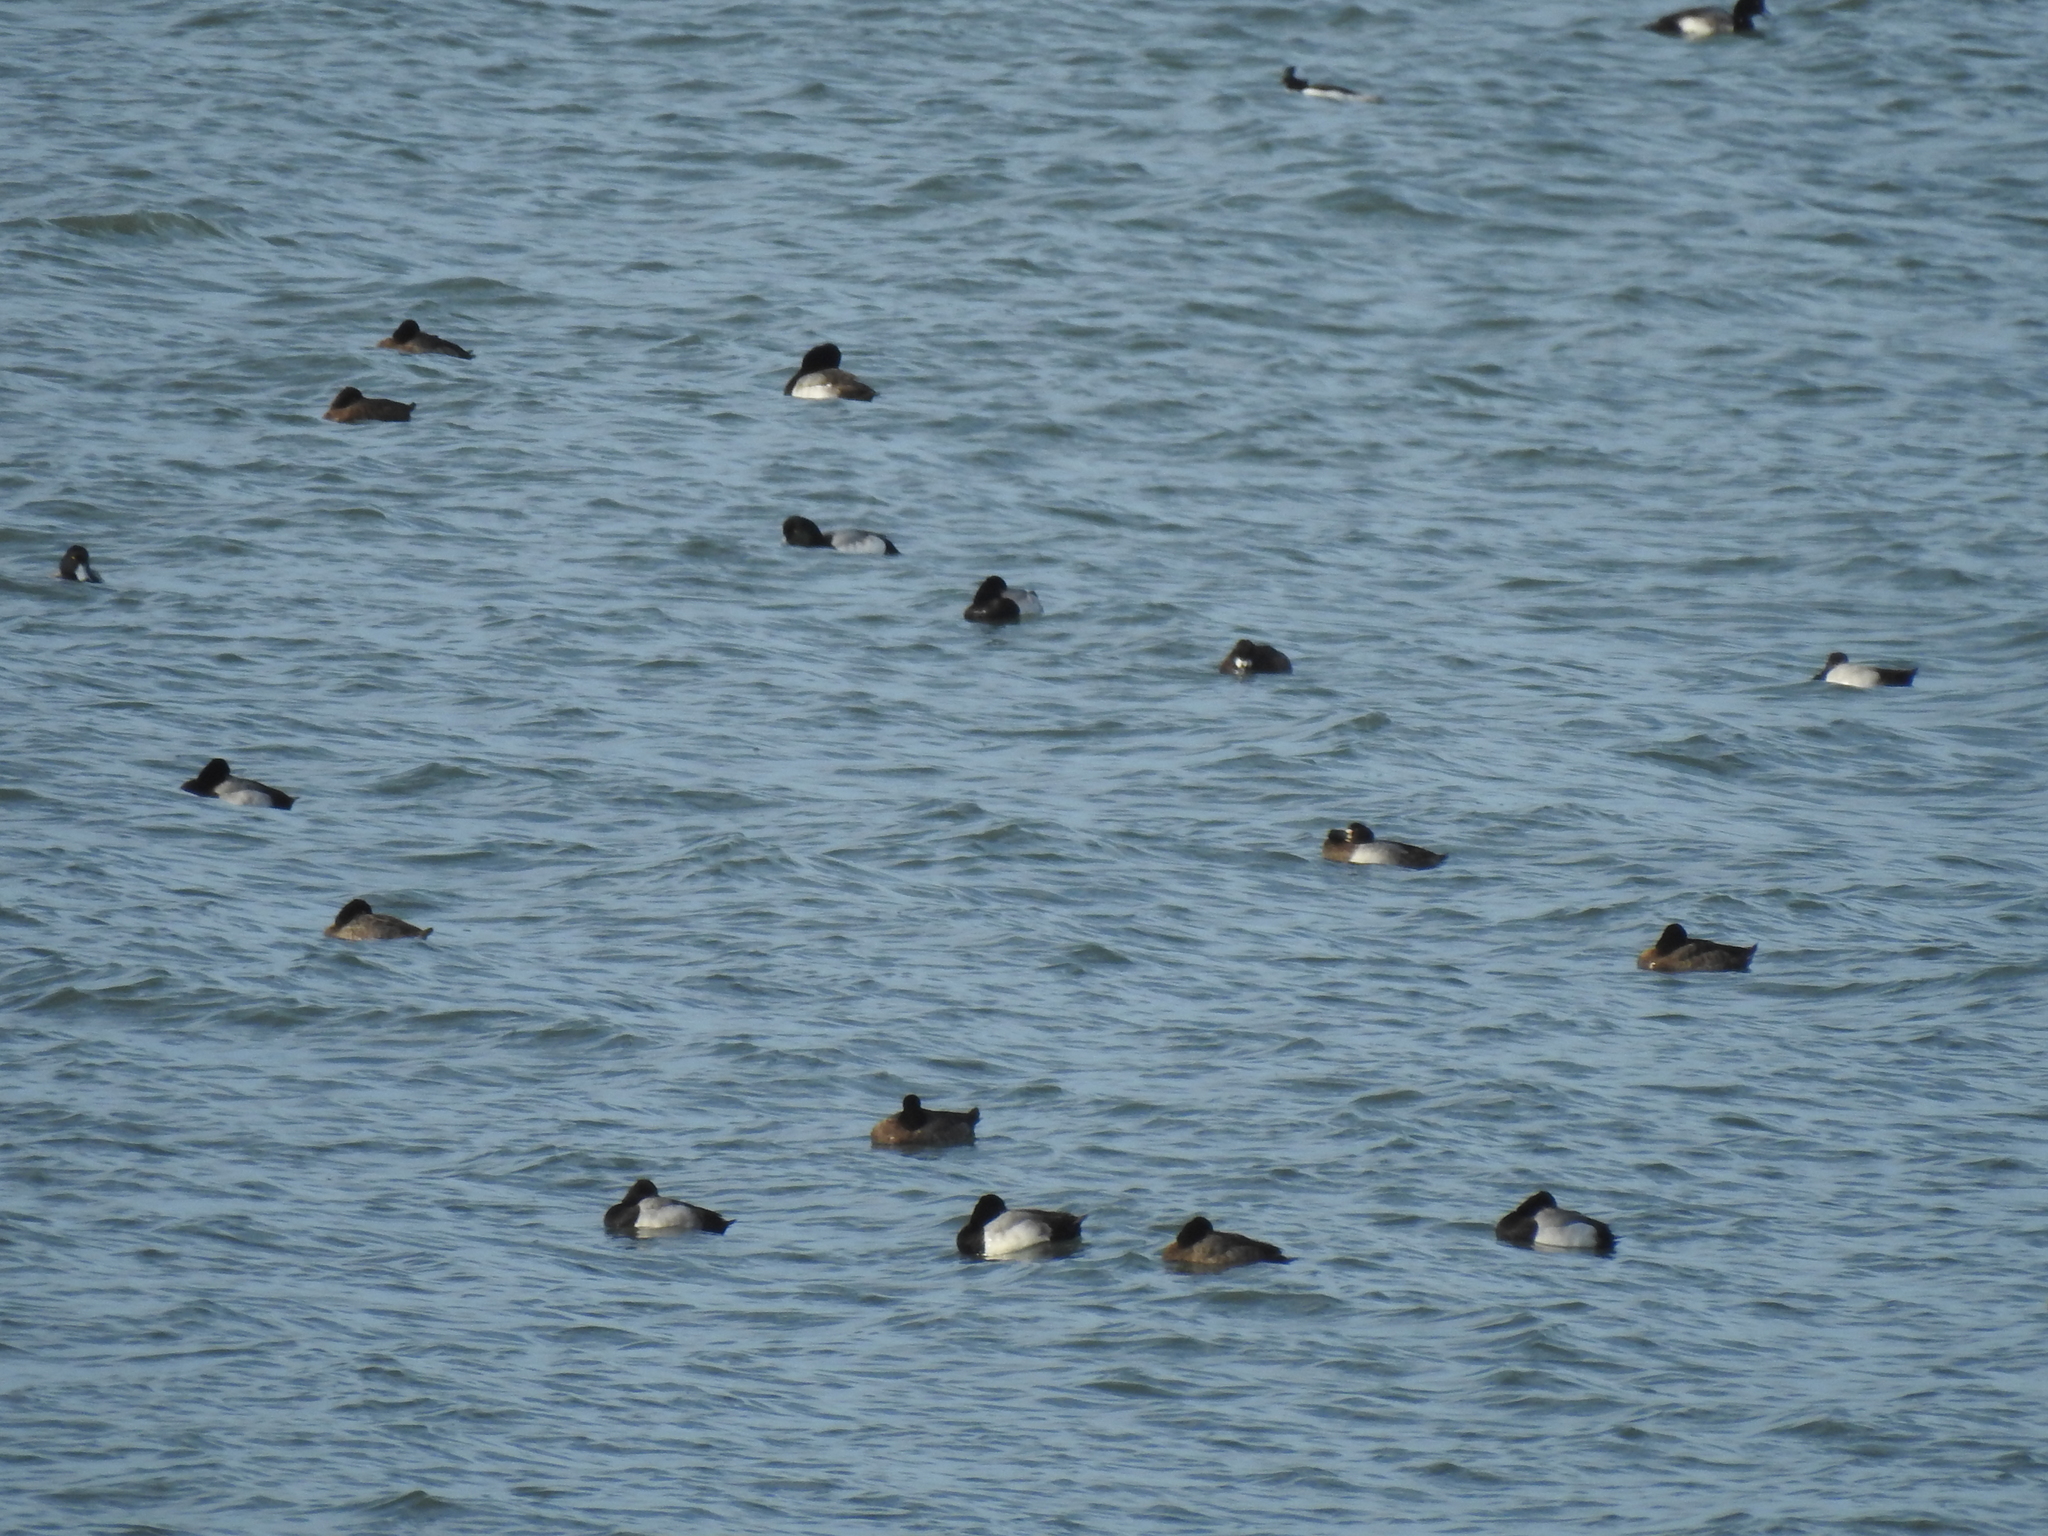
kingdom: Animalia
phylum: Chordata
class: Aves
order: Anseriformes
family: Anatidae
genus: Aythya
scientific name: Aythya affinis
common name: Lesser scaup
